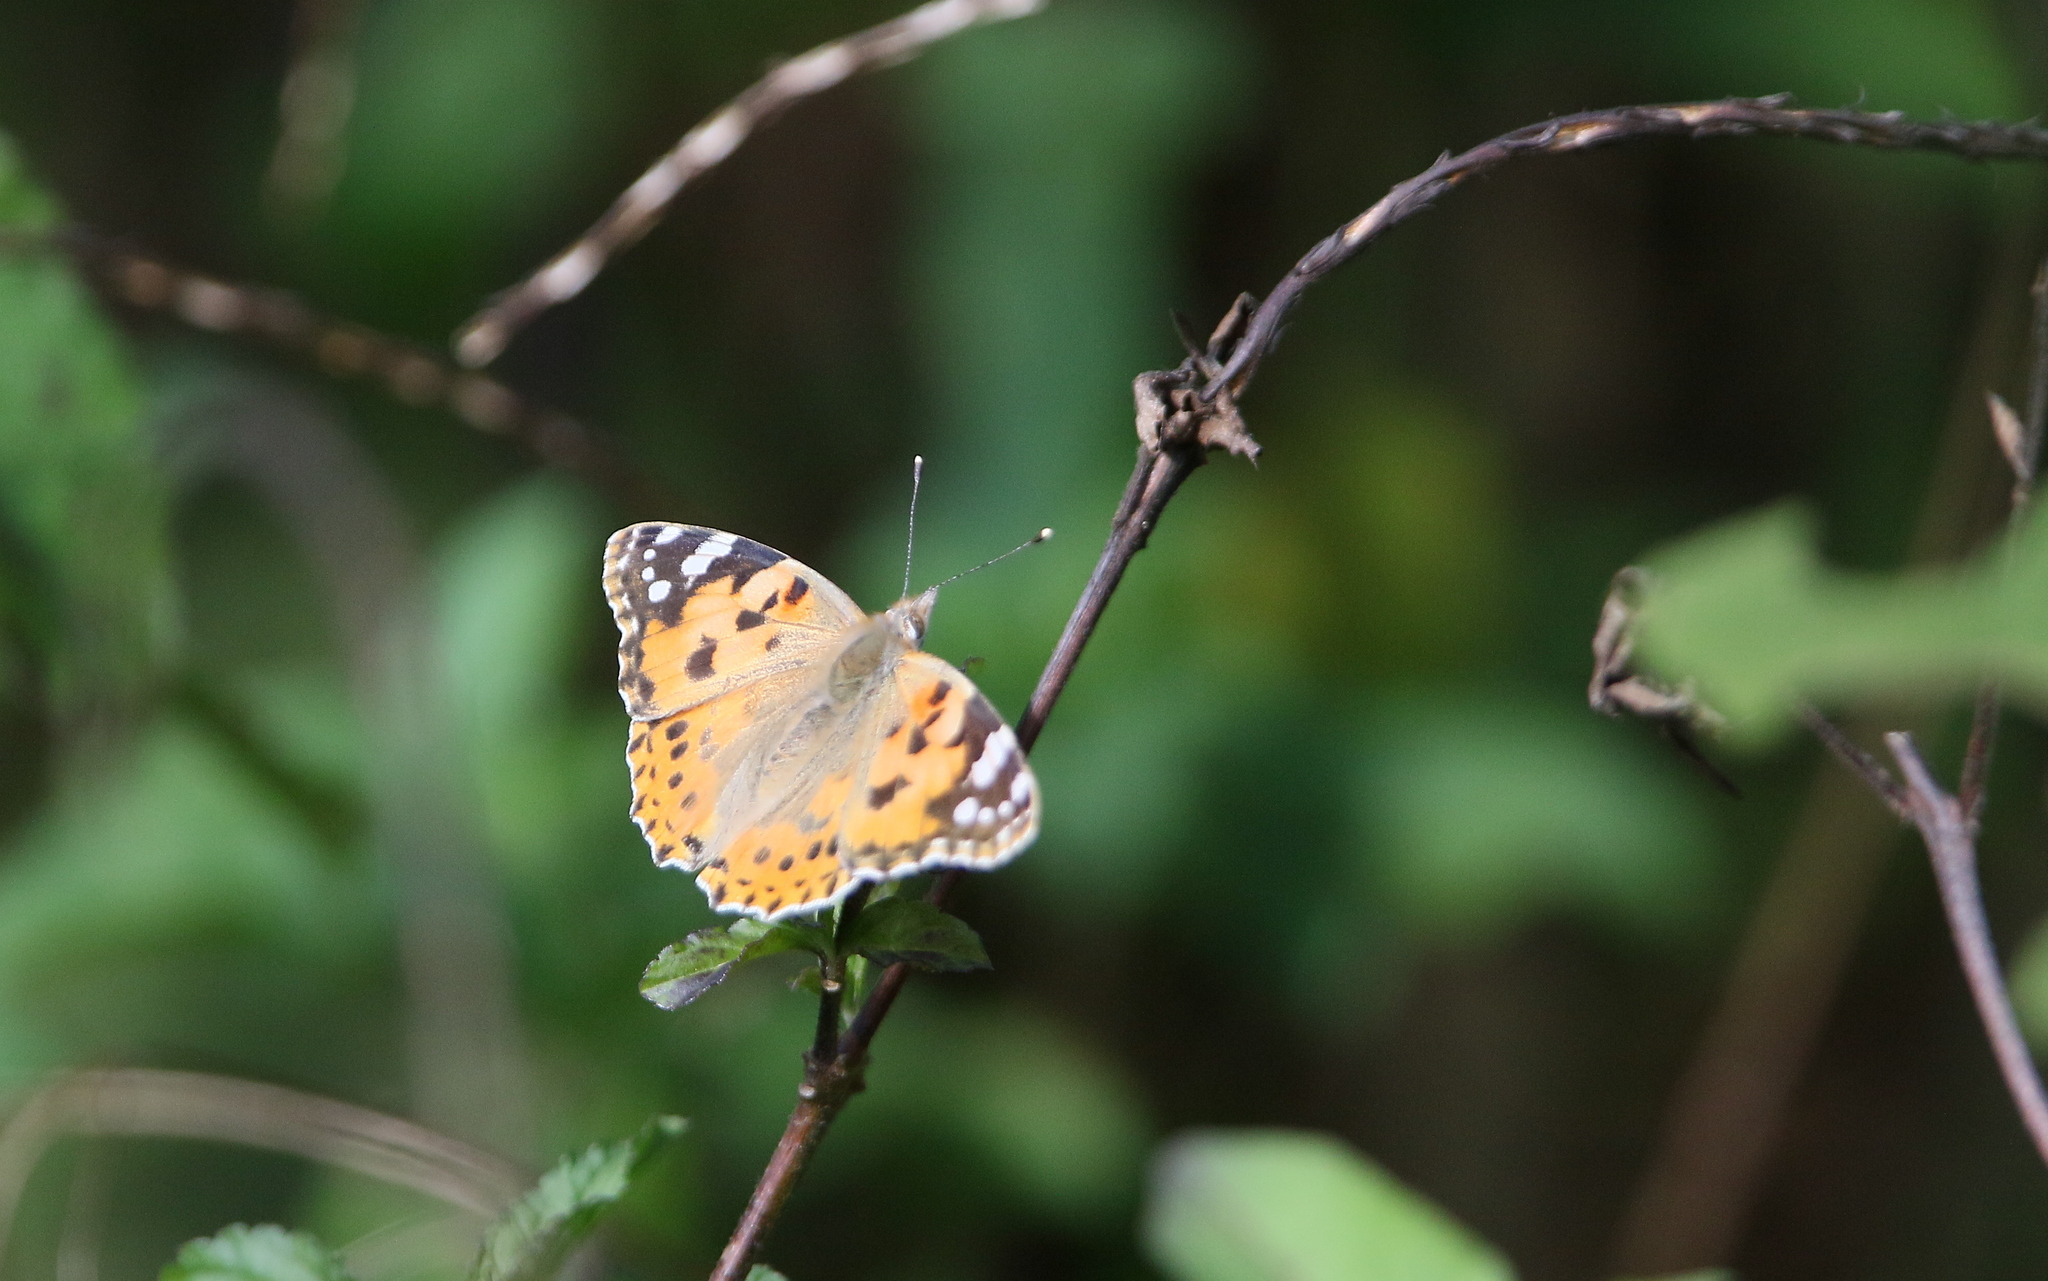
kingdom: Animalia
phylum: Arthropoda
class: Insecta
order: Lepidoptera
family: Nymphalidae
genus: Vanessa
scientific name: Vanessa cardui
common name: Painted lady
